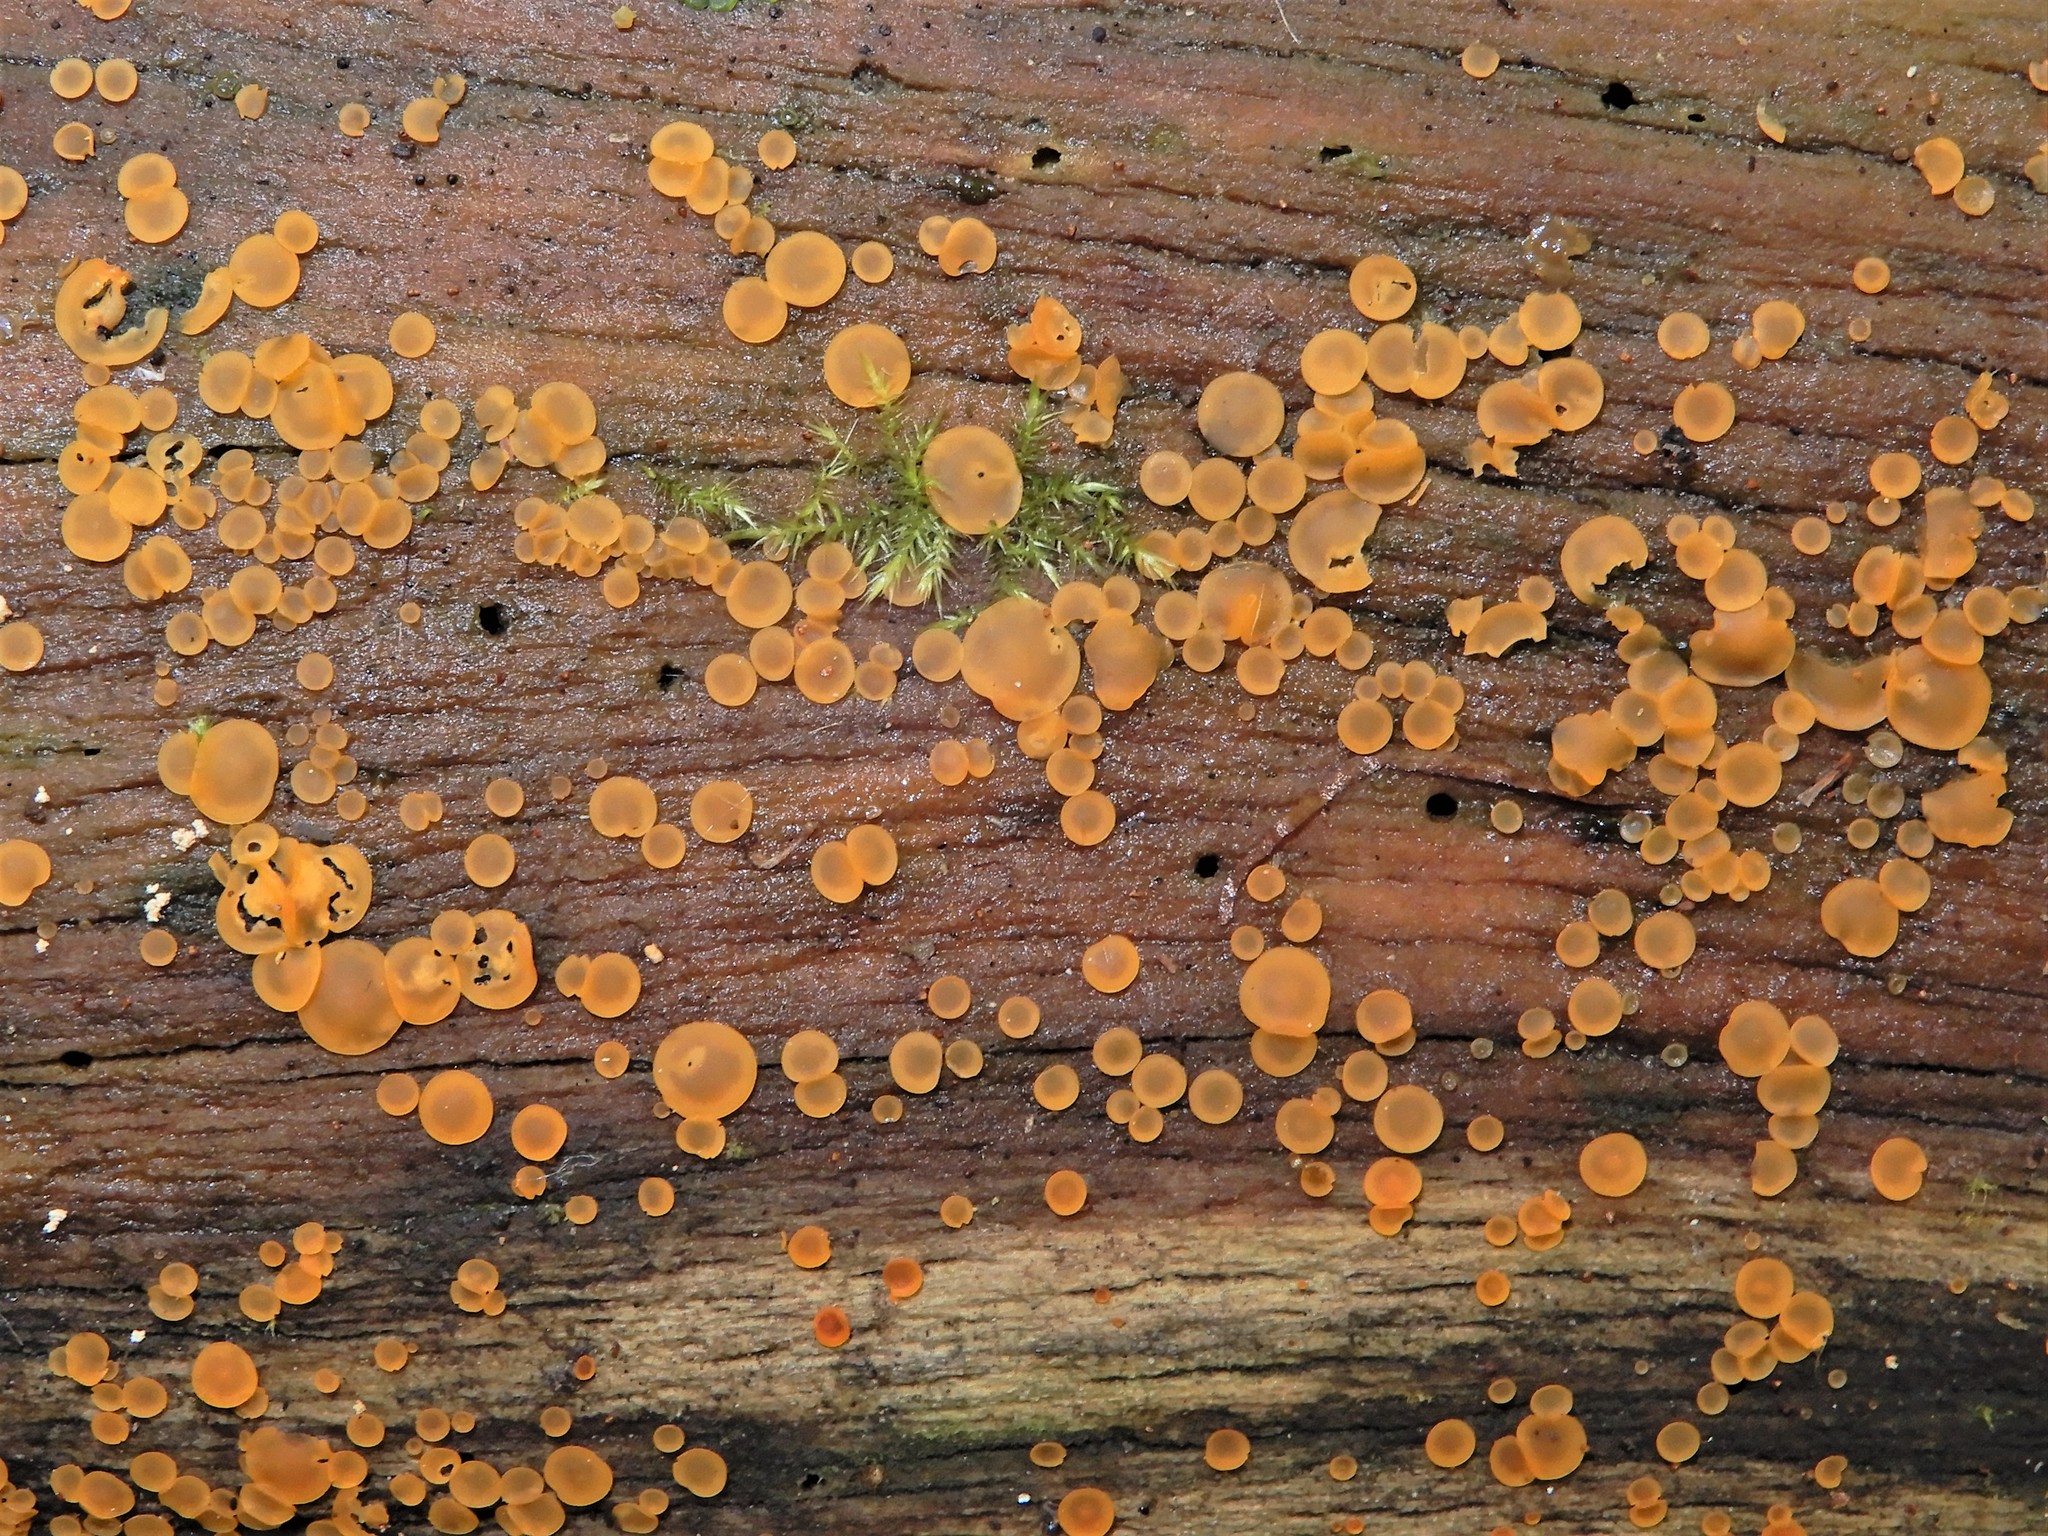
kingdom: Fungi
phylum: Ascomycota
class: Orbiliomycetes
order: Orbiliales
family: Orbiliaceae
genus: Orbilia
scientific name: Orbilia
